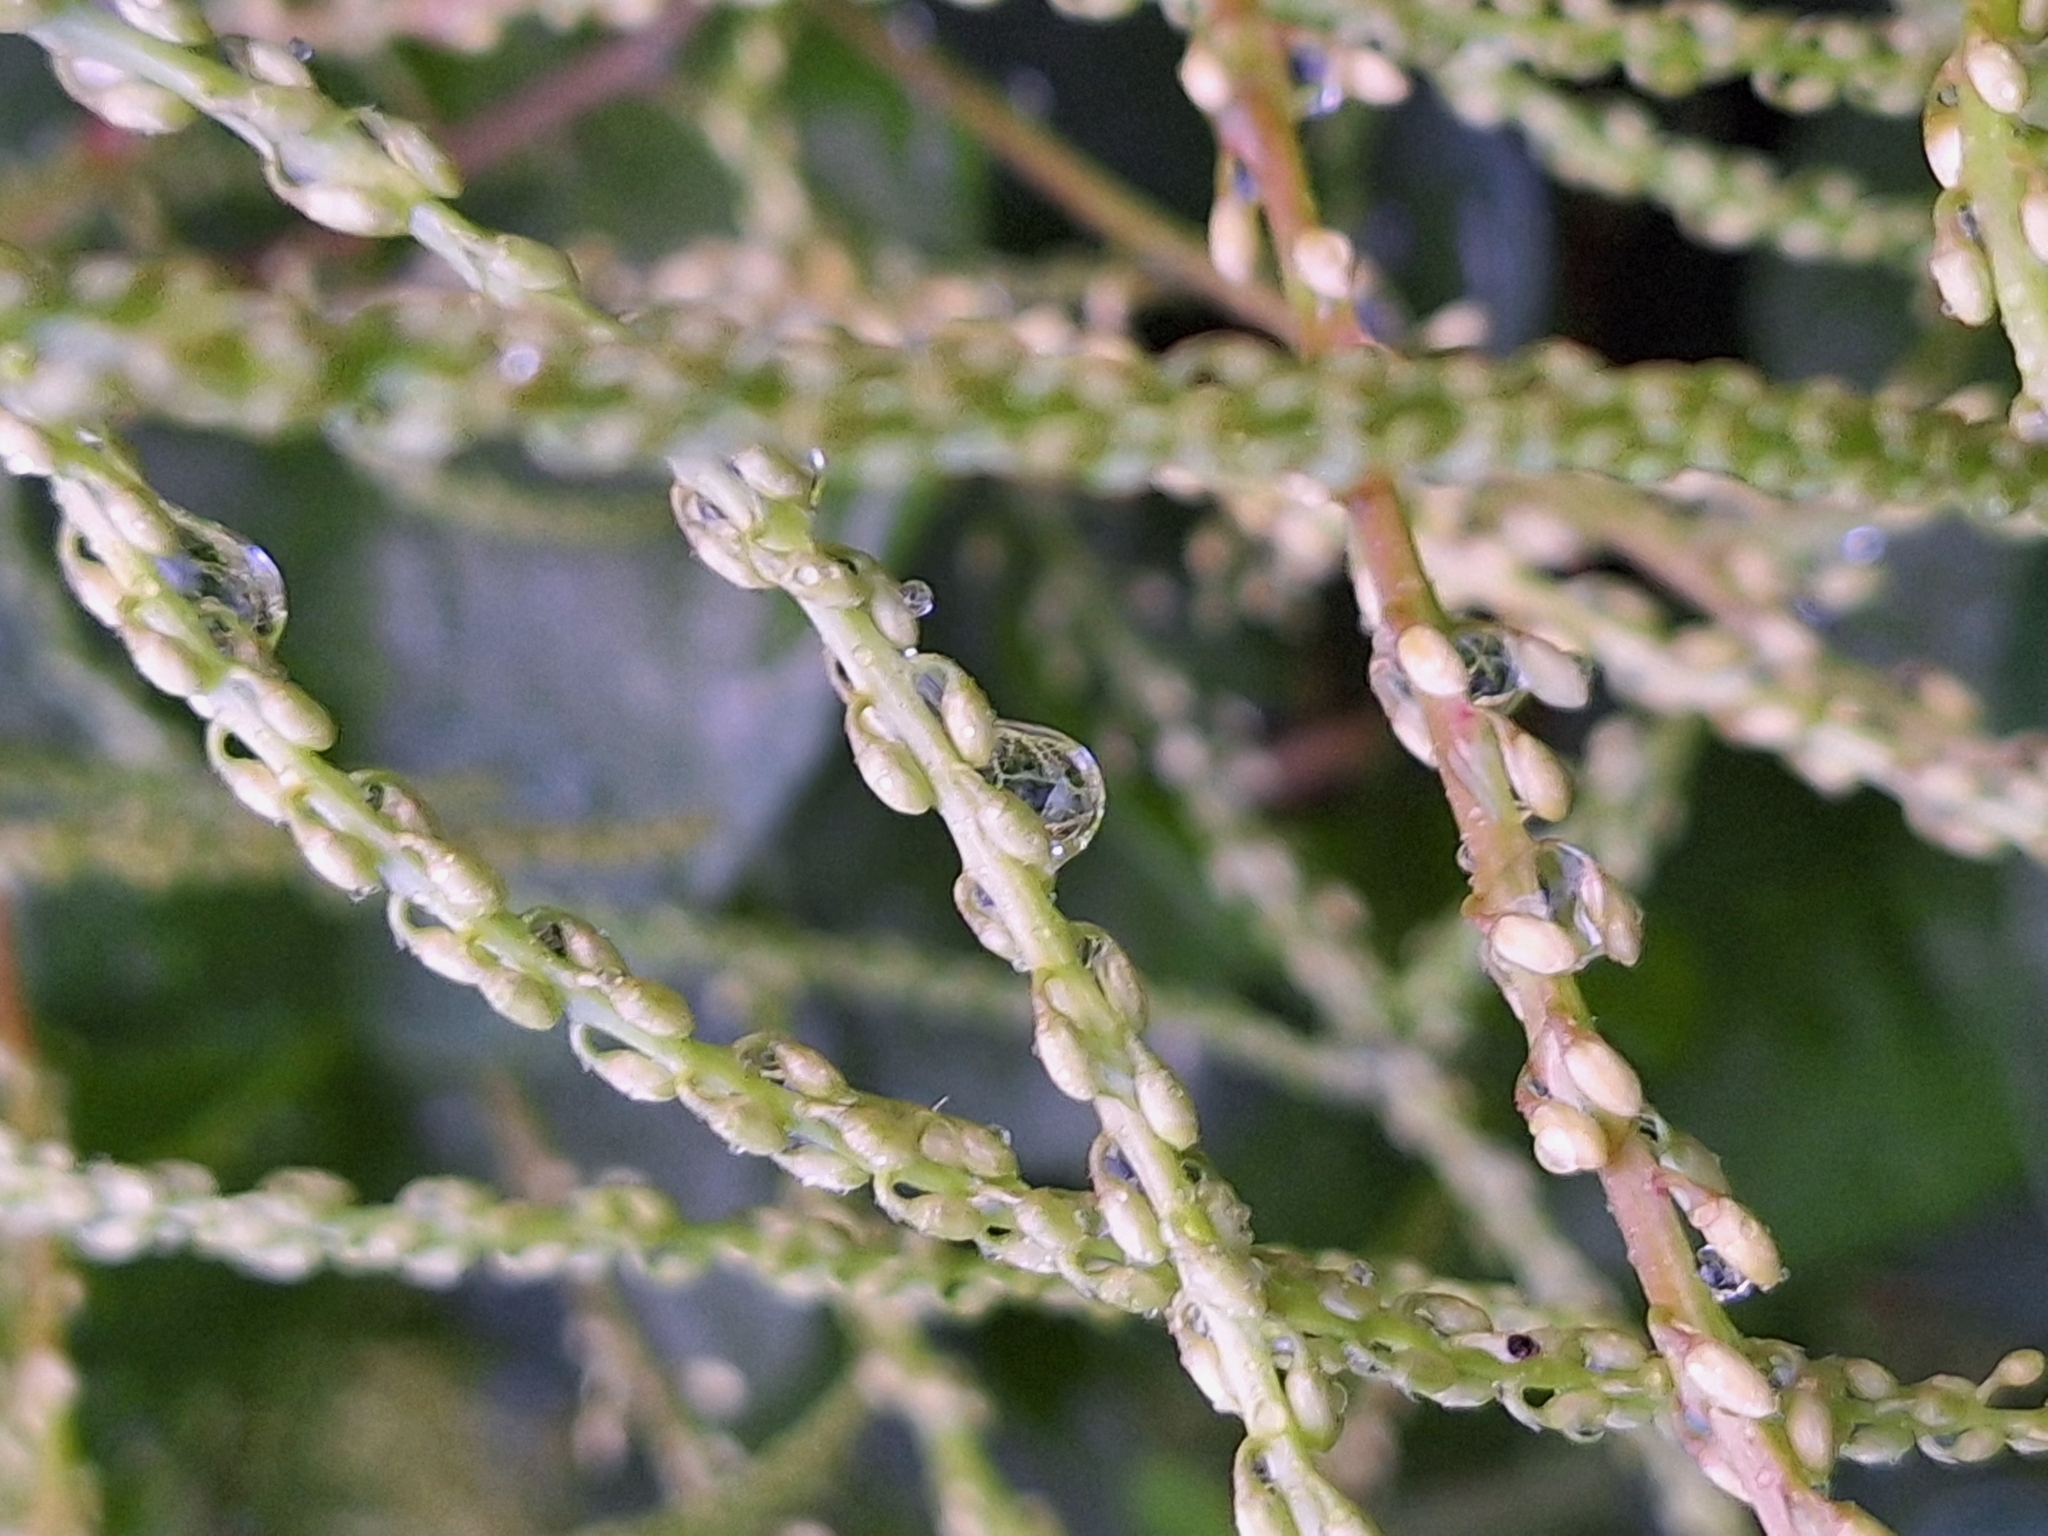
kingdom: Plantae
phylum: Tracheophyta
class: Magnoliopsida
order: Caryophyllales
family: Basellaceae
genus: Anredera
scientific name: Anredera cordifolia
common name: Heartleaf madeiravine
